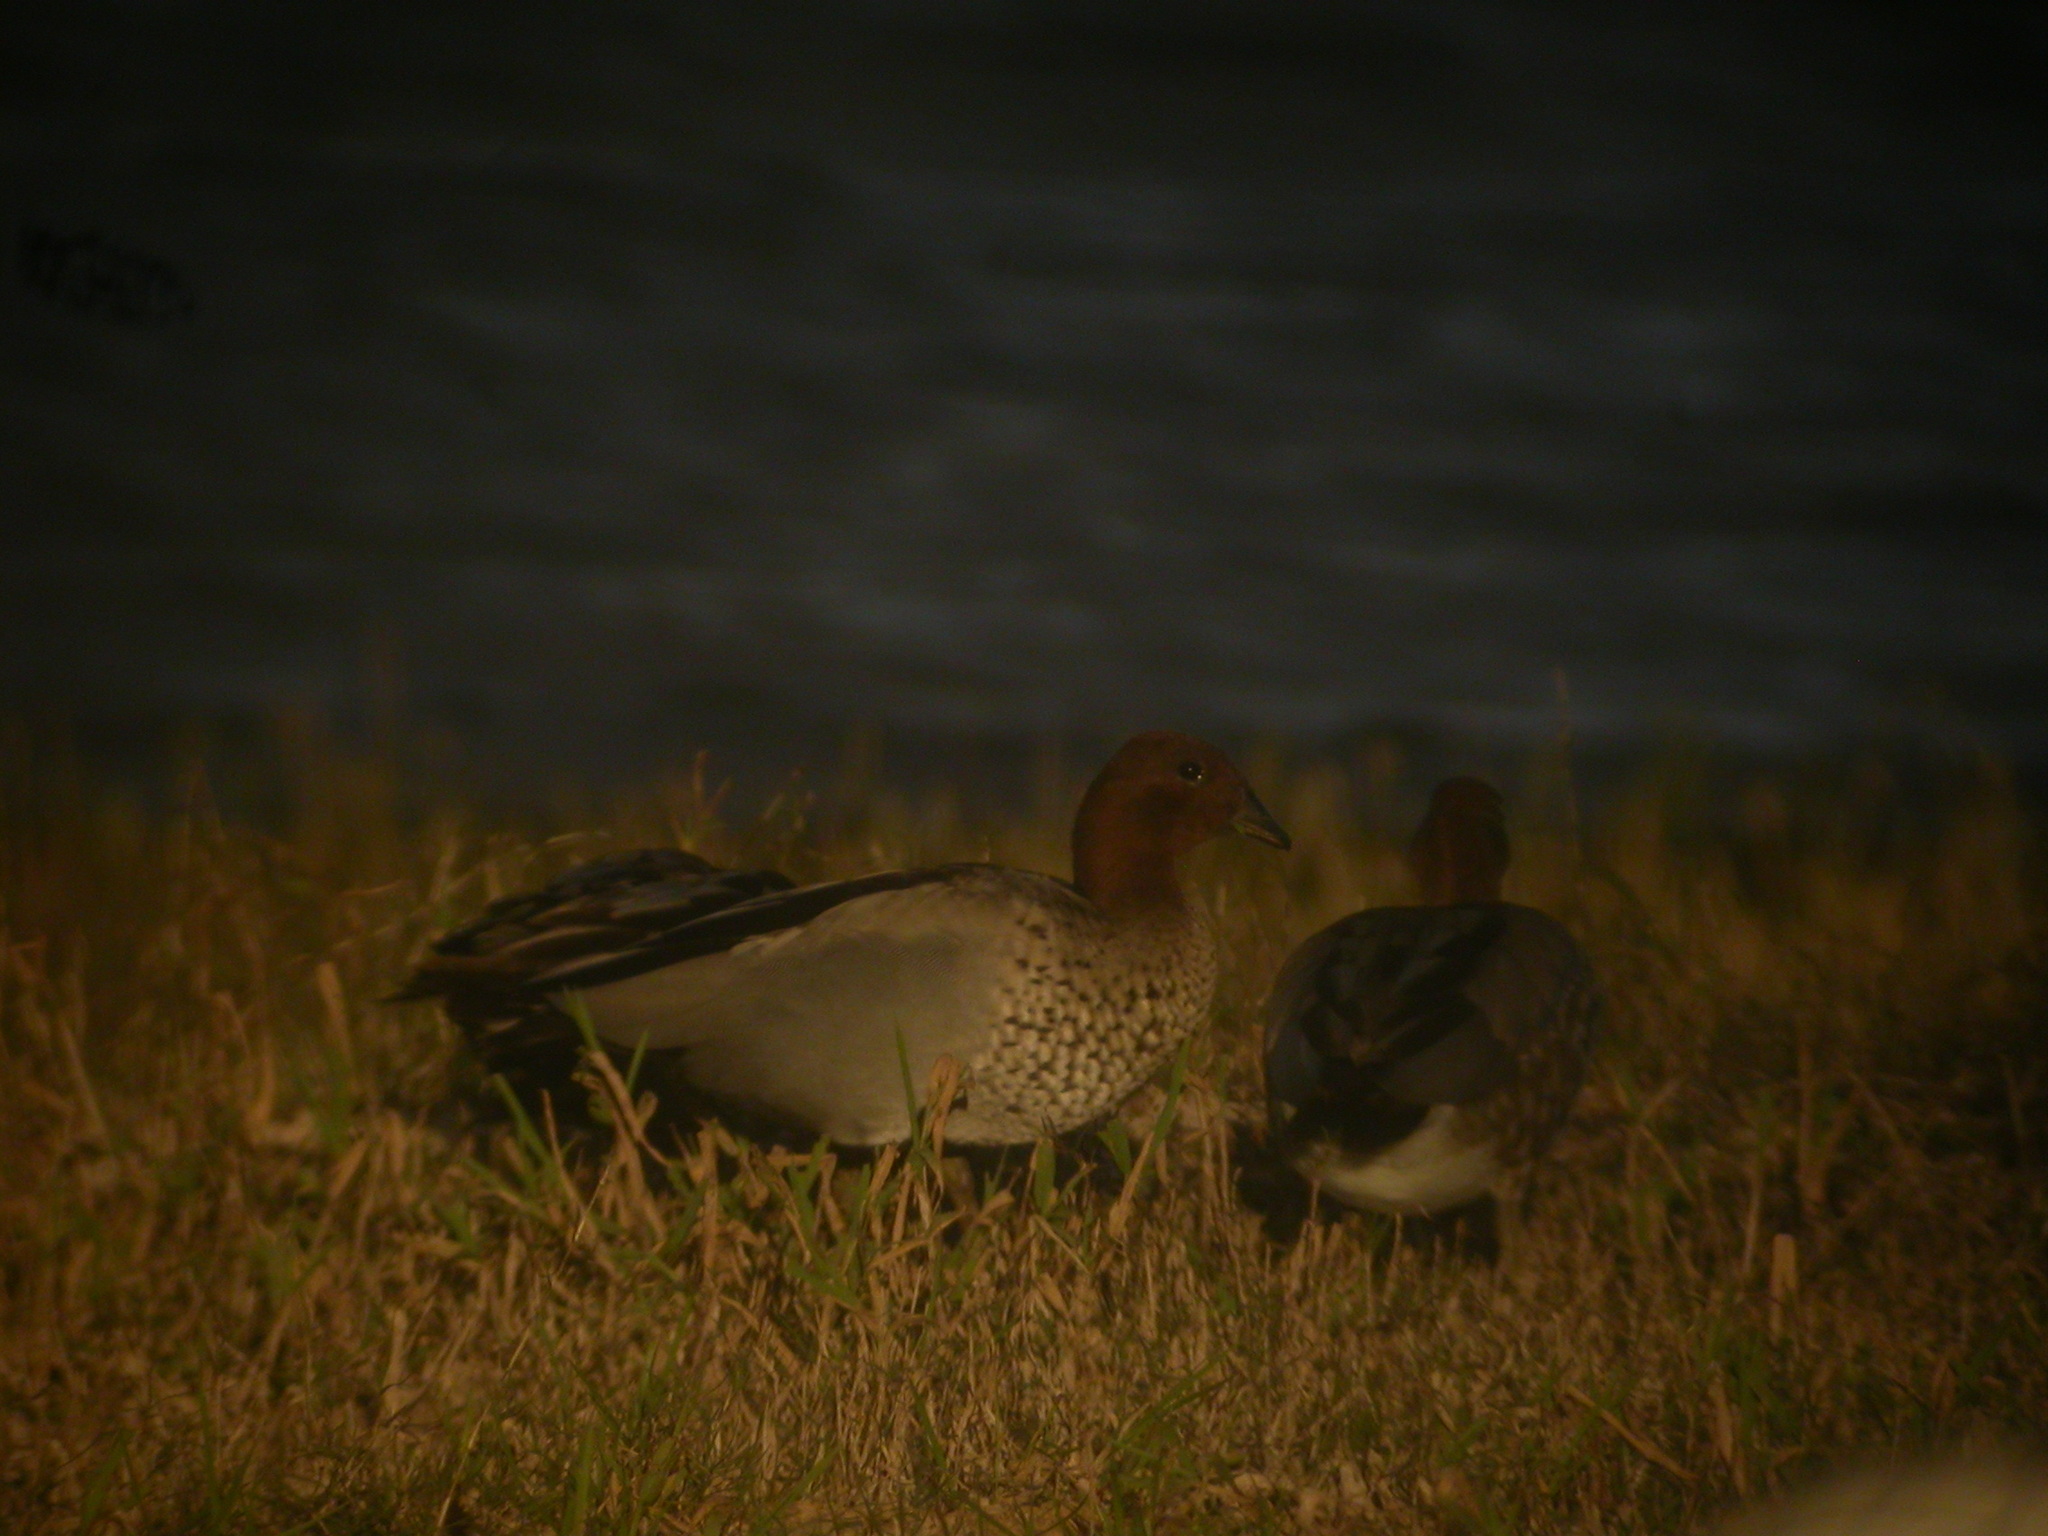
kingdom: Animalia
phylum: Chordata
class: Aves
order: Anseriformes
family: Anatidae
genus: Chenonetta
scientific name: Chenonetta jubata
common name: Maned duck
